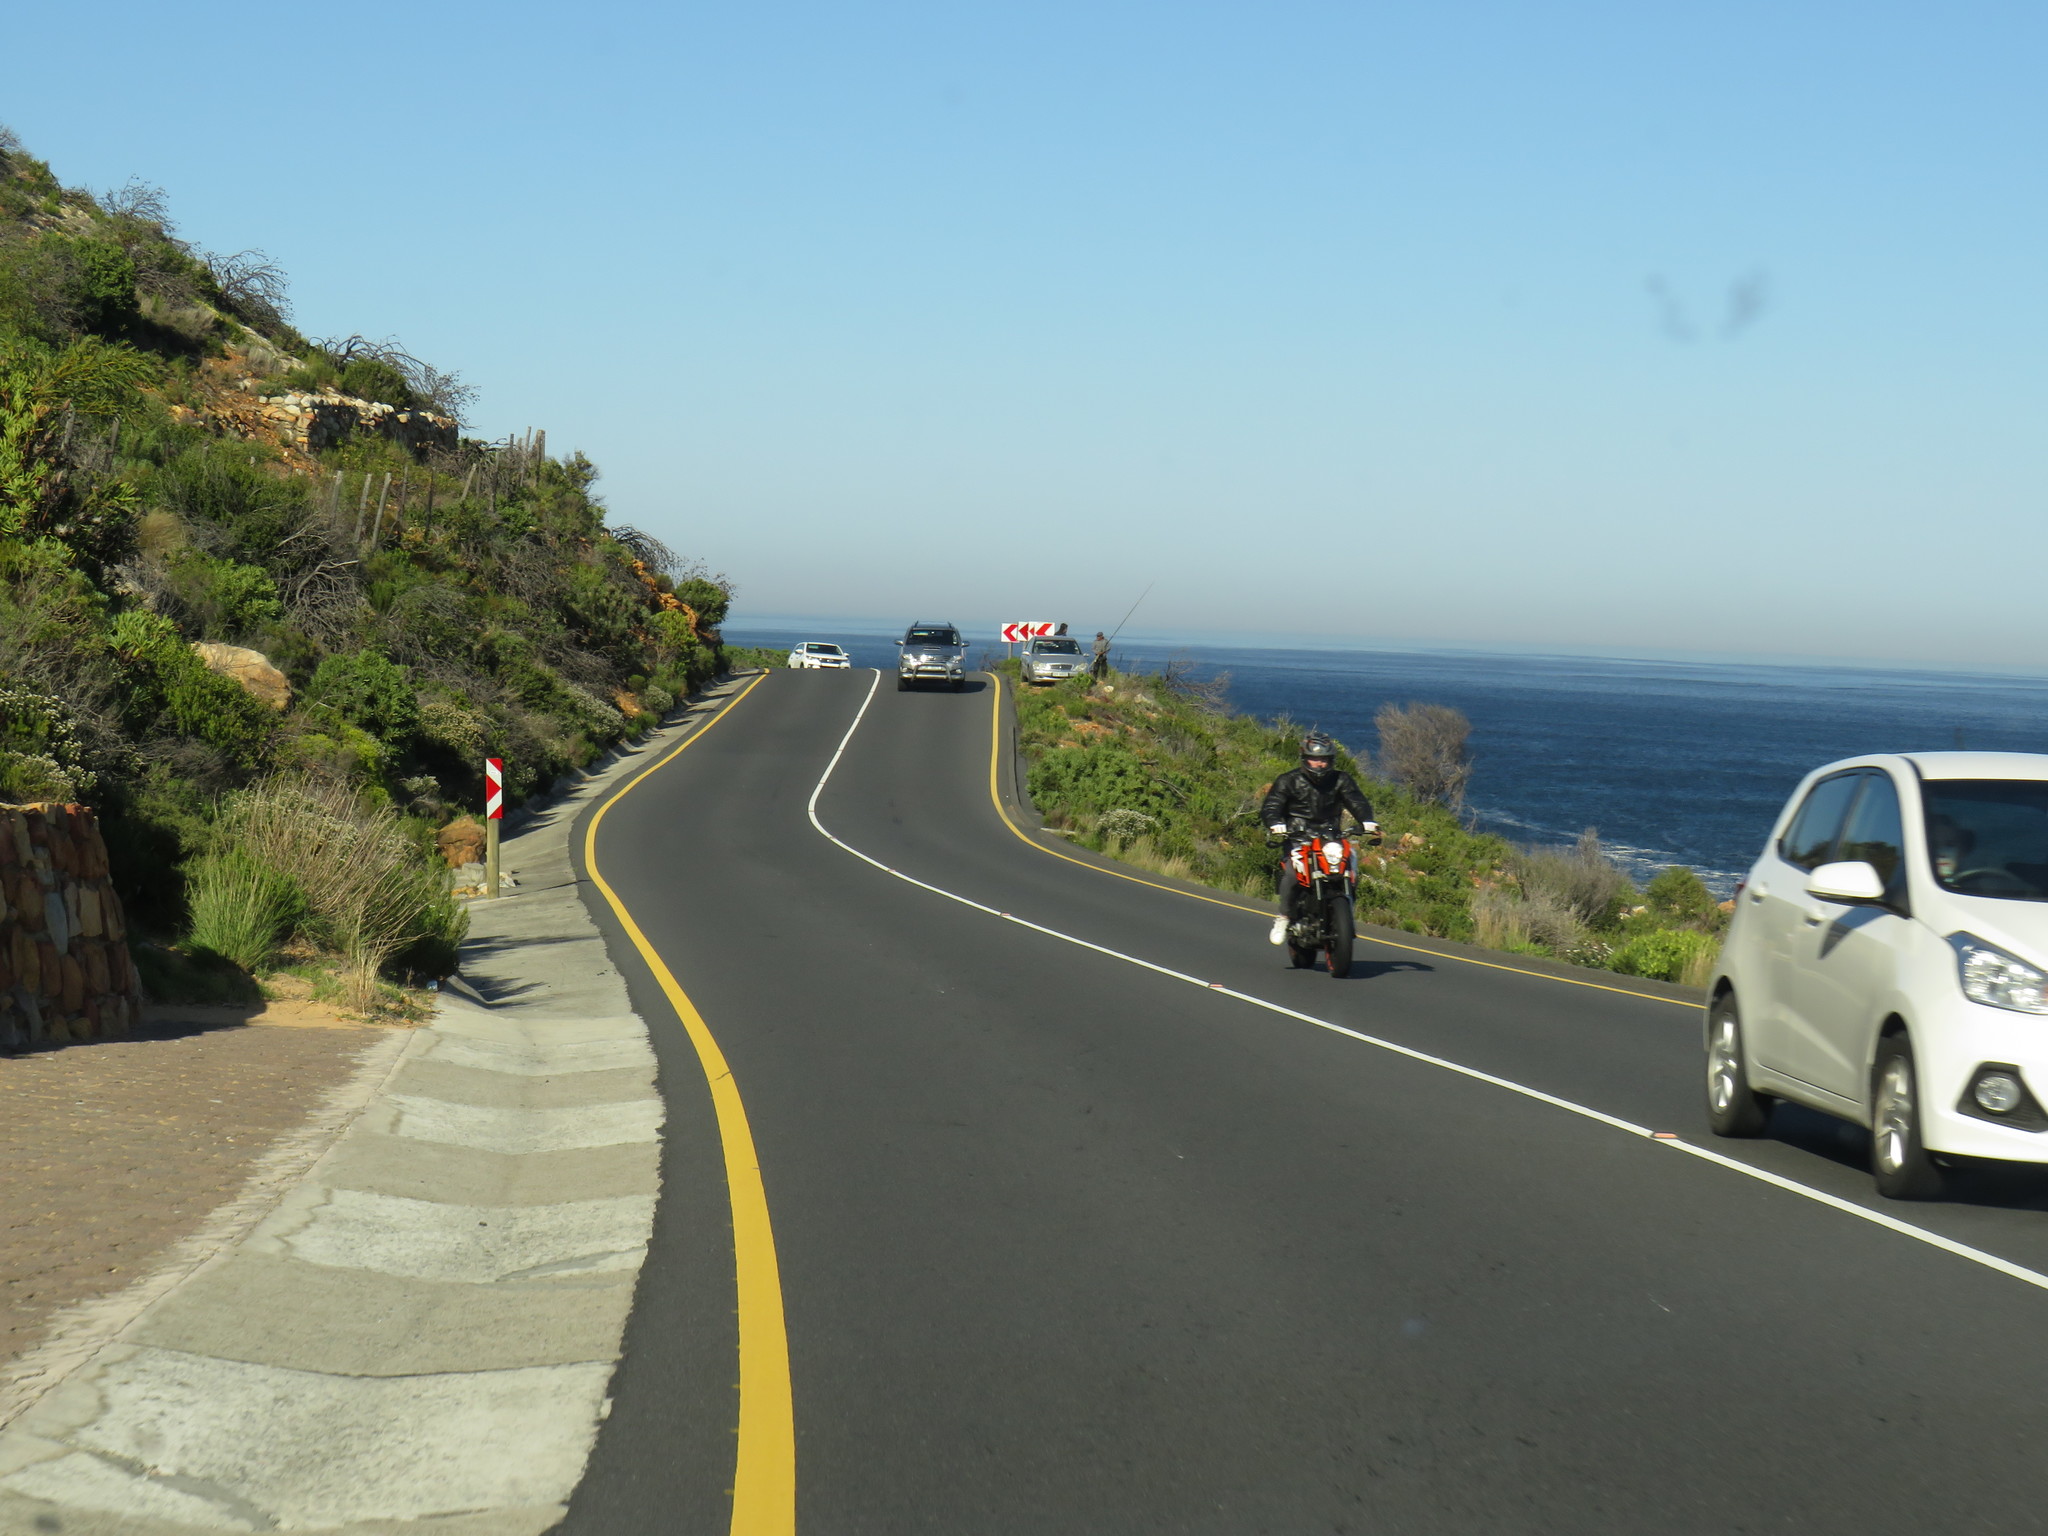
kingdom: Plantae
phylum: Tracheophyta
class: Magnoliopsida
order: Asterales
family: Asteraceae
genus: Dimorphotheca
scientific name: Dimorphotheca walliana
